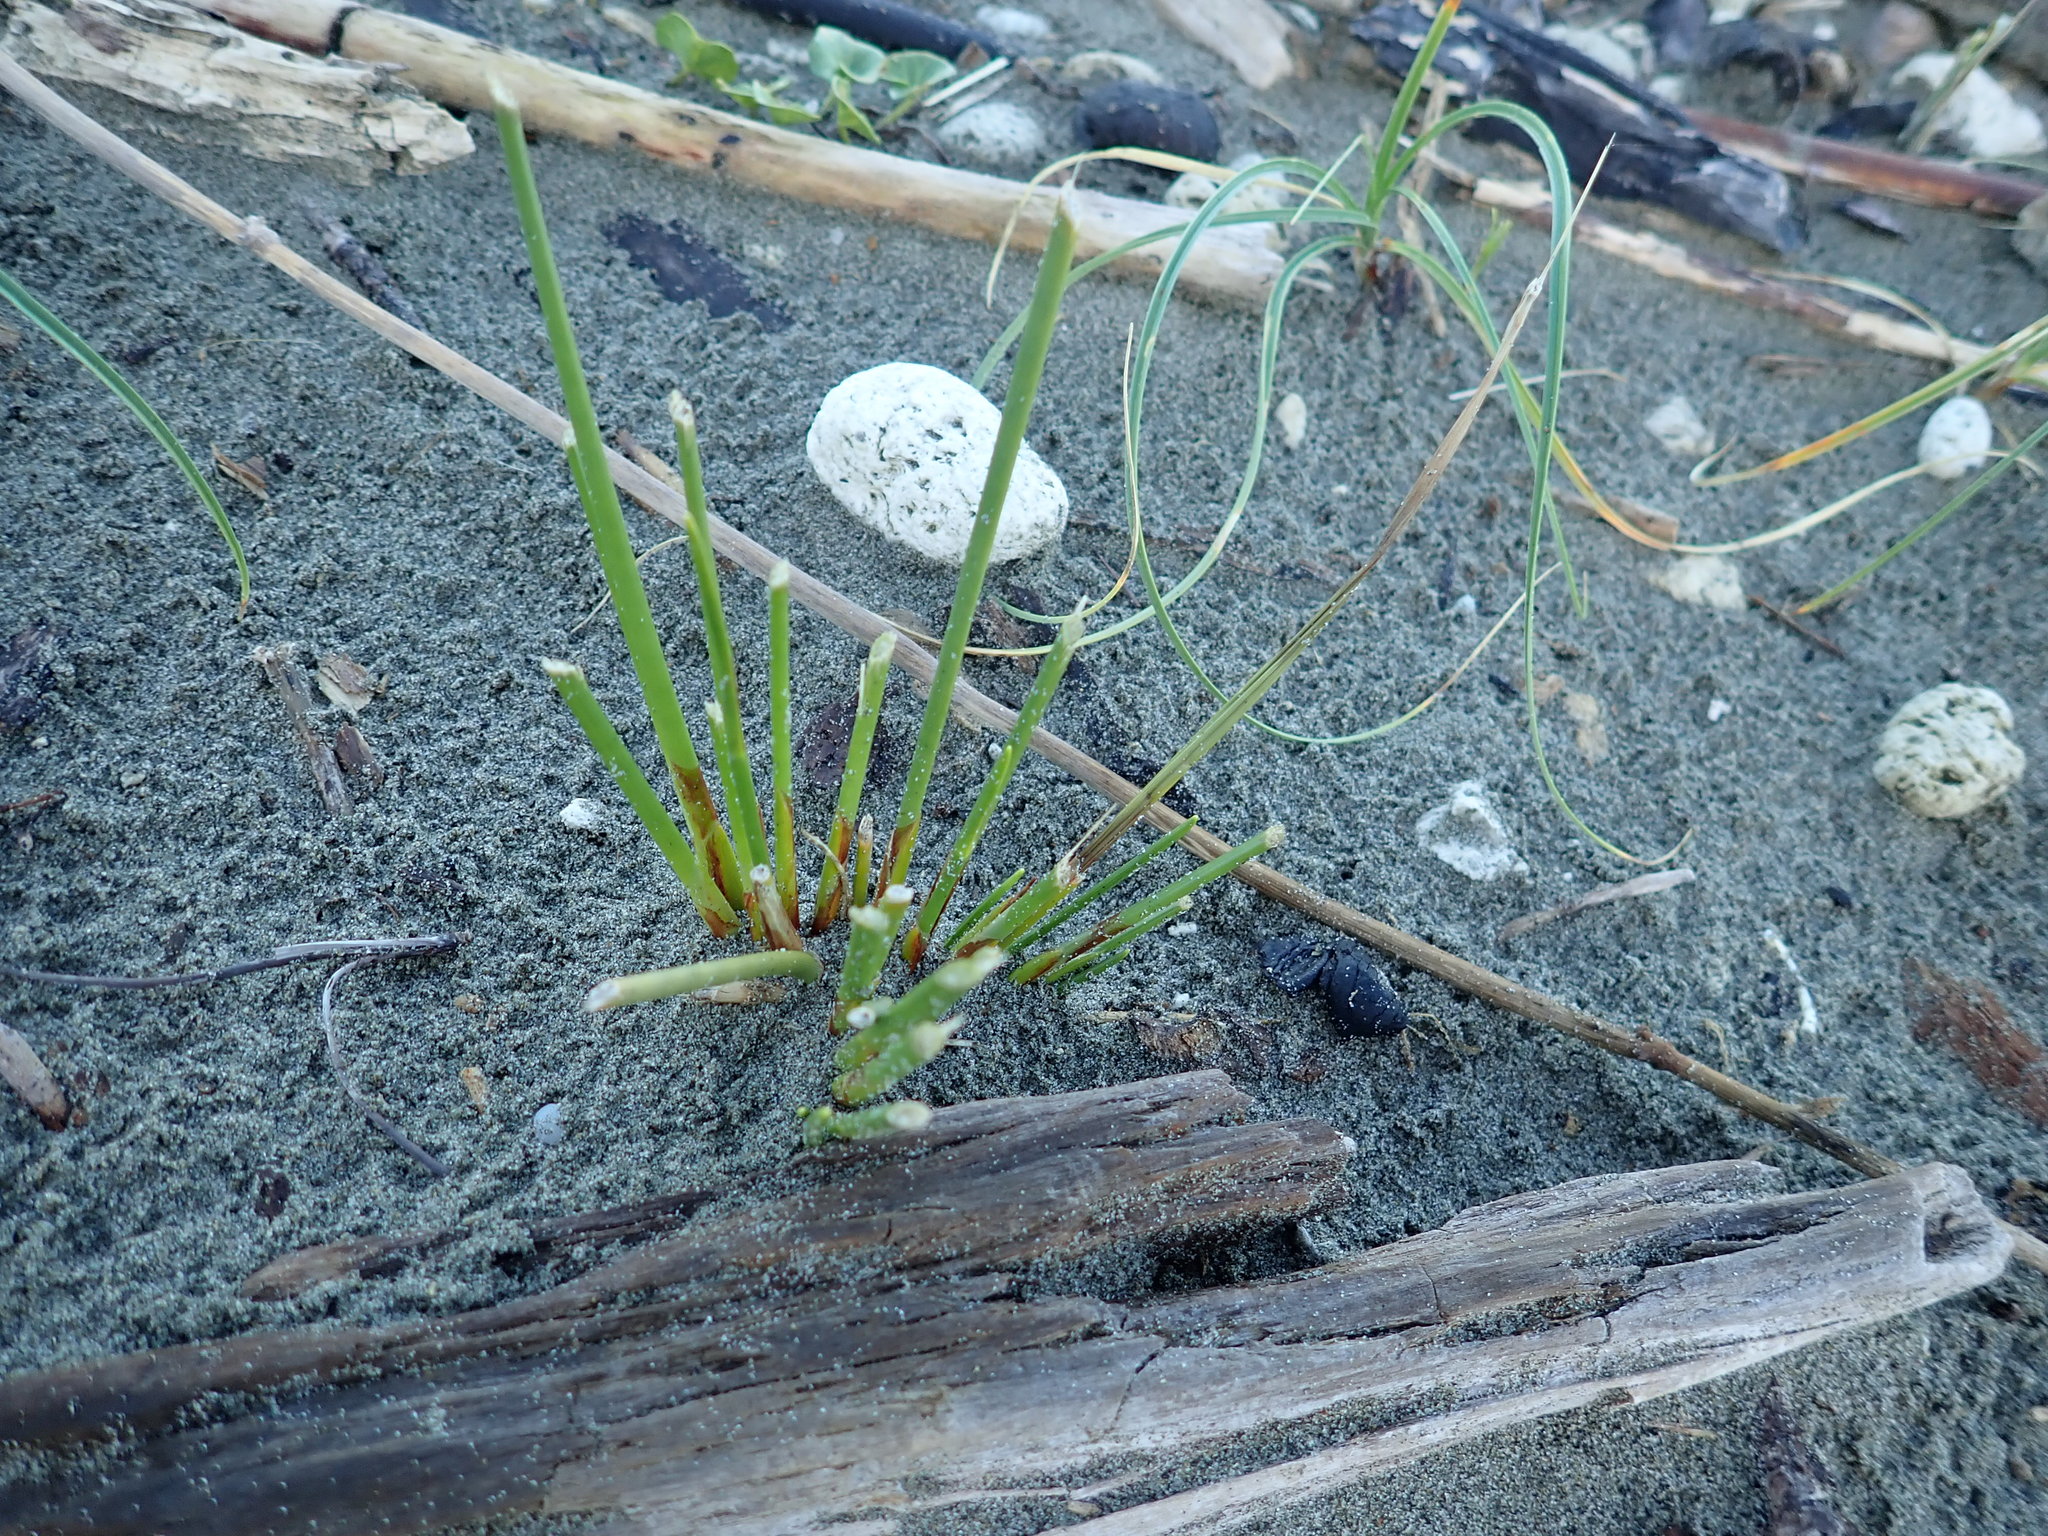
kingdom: Plantae
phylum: Tracheophyta
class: Liliopsida
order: Poales
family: Cyperaceae
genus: Ficinia
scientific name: Ficinia nodosa
